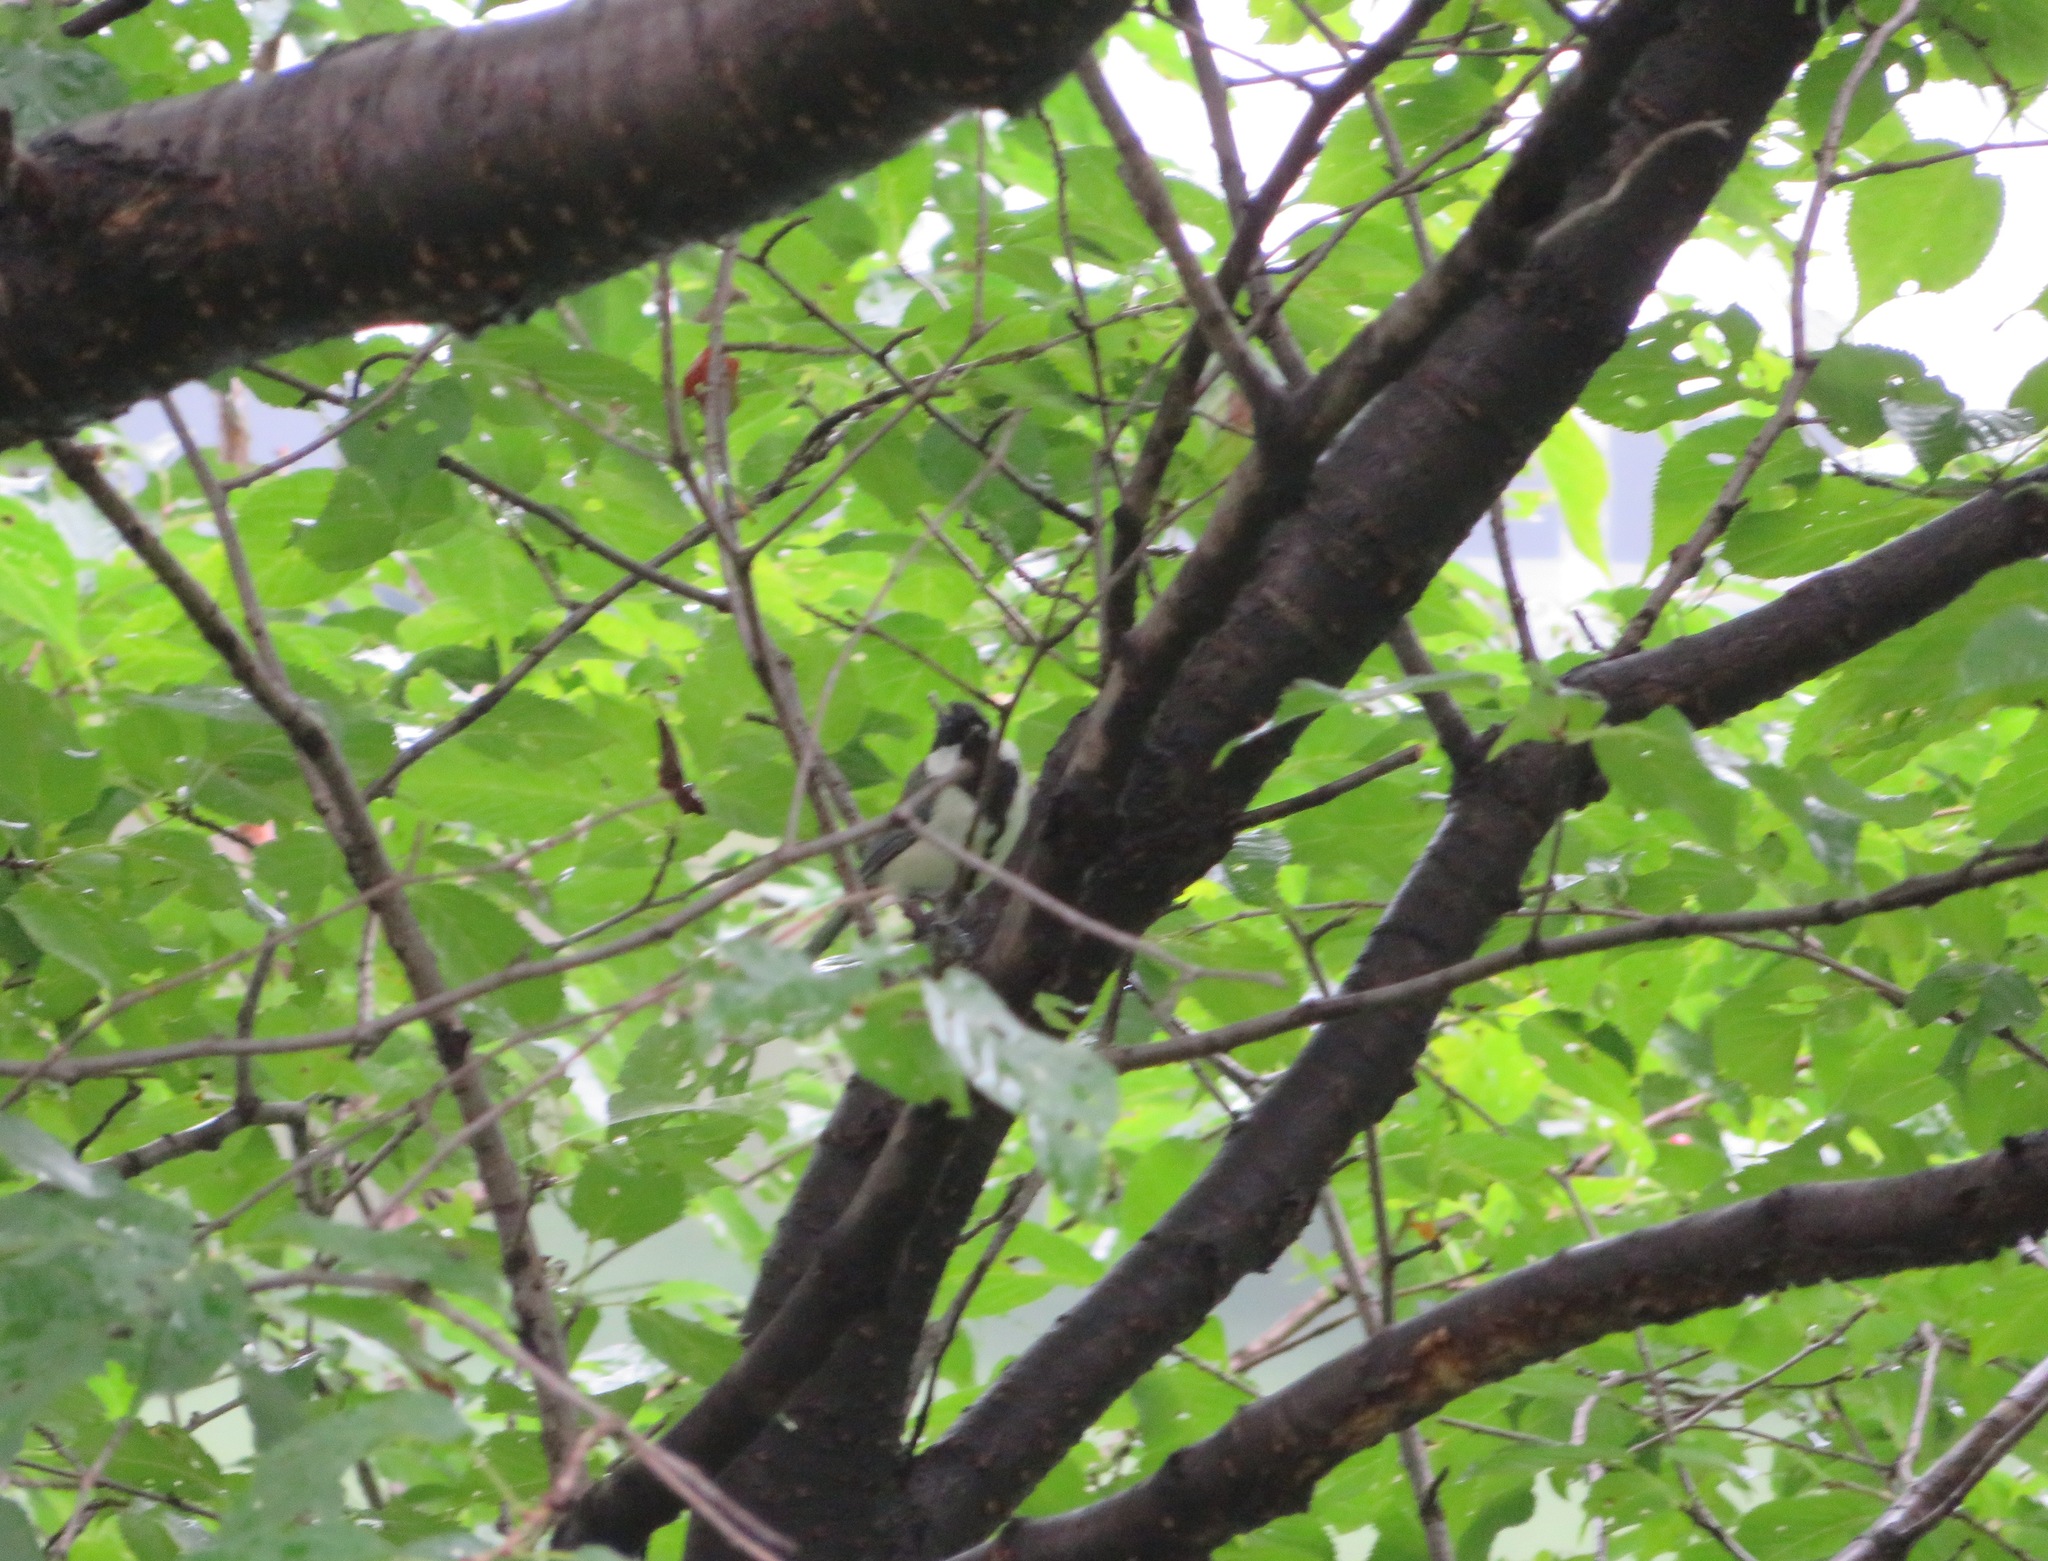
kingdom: Animalia
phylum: Chordata
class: Aves
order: Passeriformes
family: Paridae
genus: Parus
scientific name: Parus minor
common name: Japanese tit
